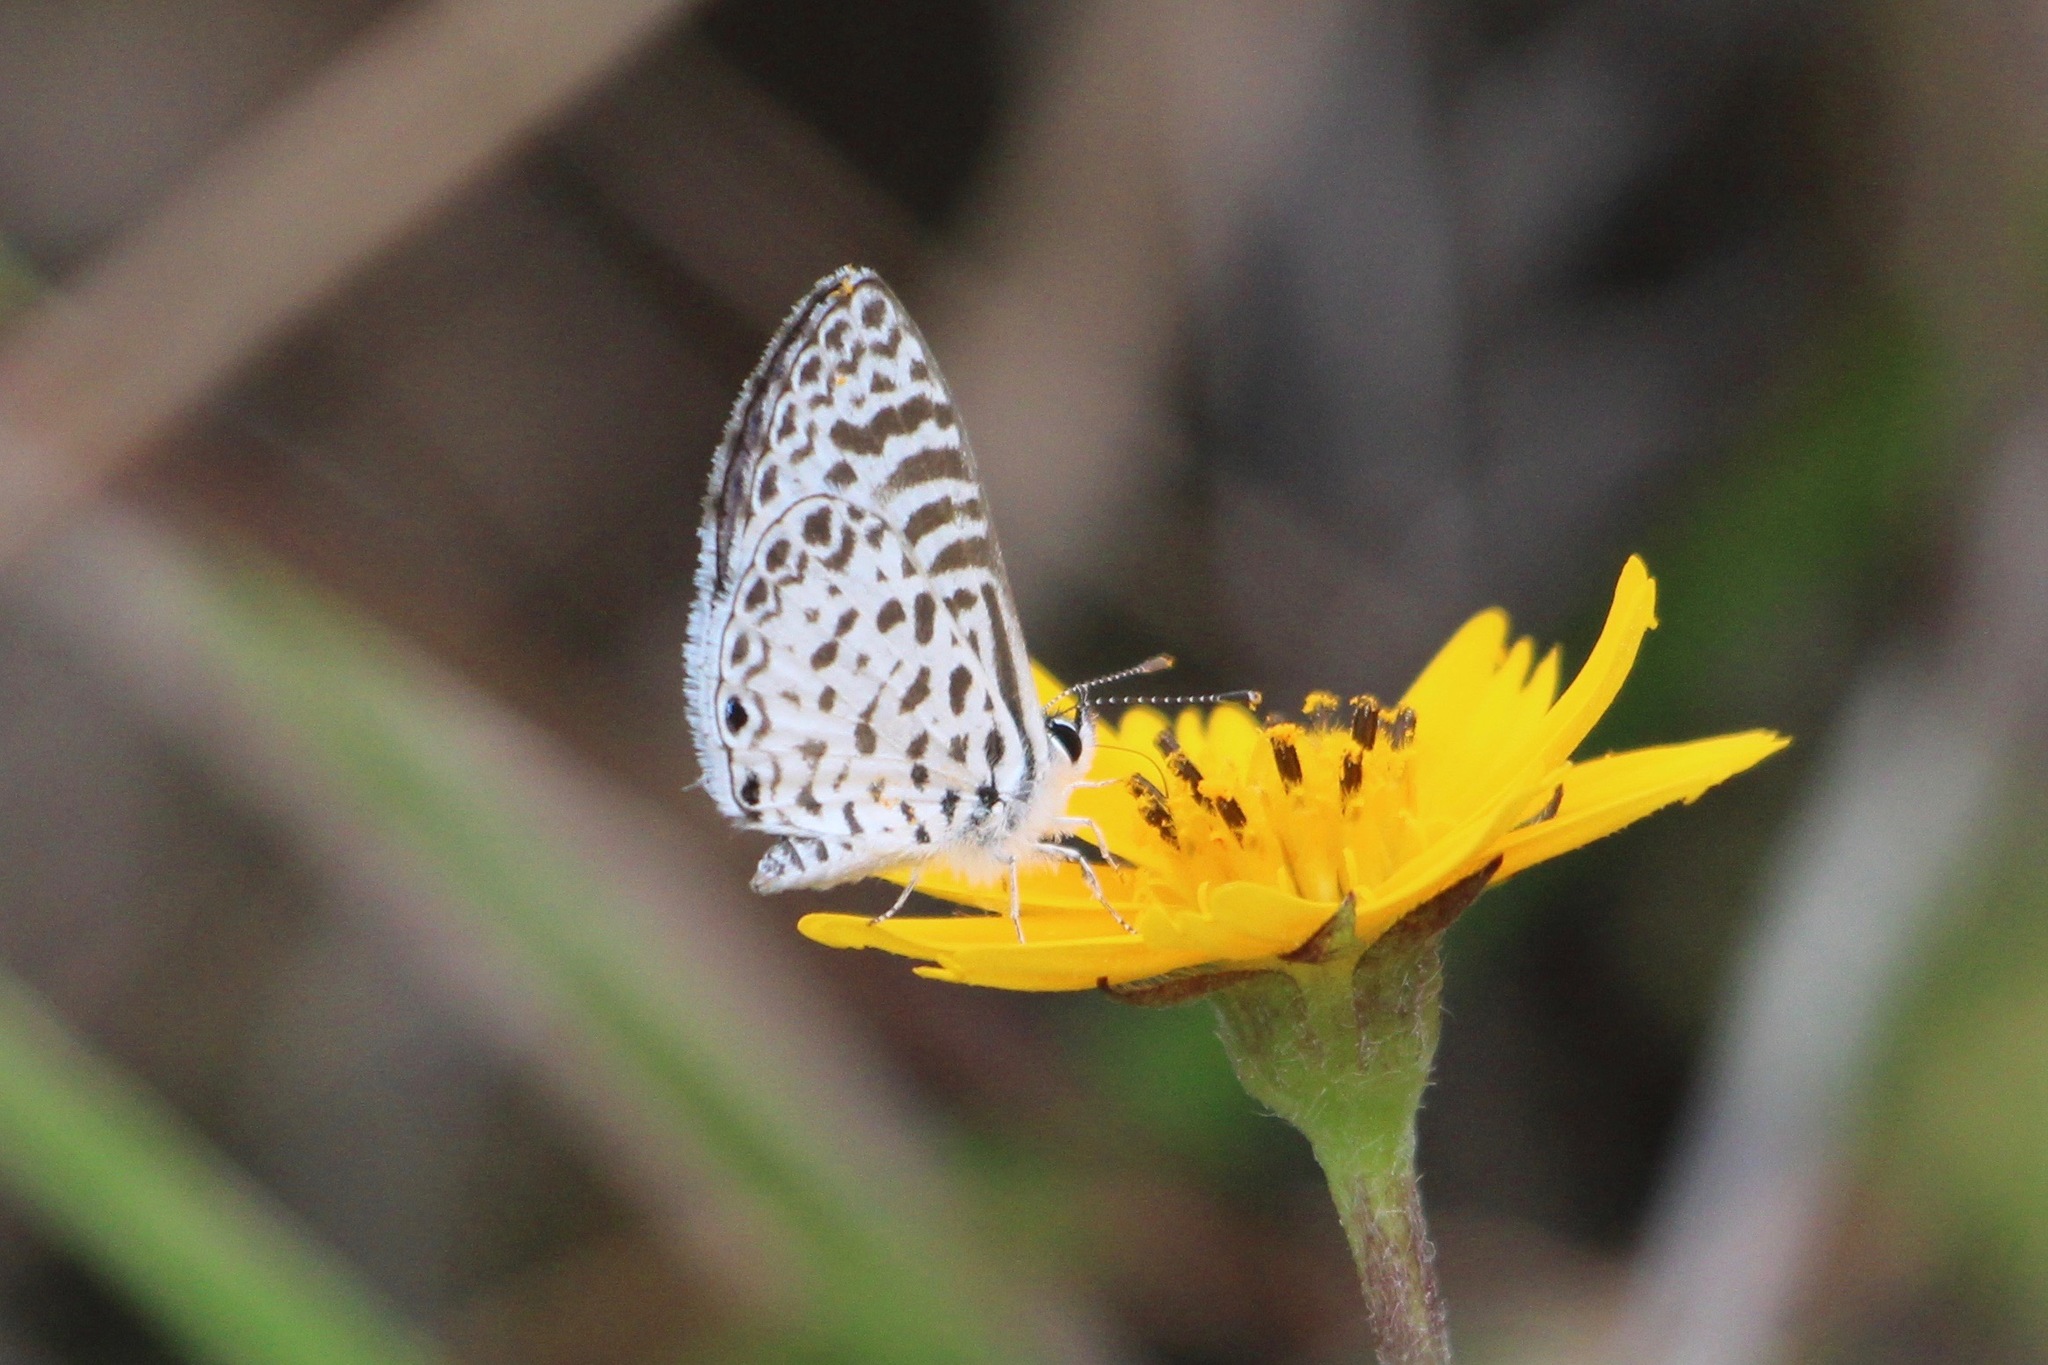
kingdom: Animalia
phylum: Arthropoda
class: Insecta
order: Lepidoptera
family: Lycaenidae
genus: Leptotes
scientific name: Leptotes cassius
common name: Cassius blue
